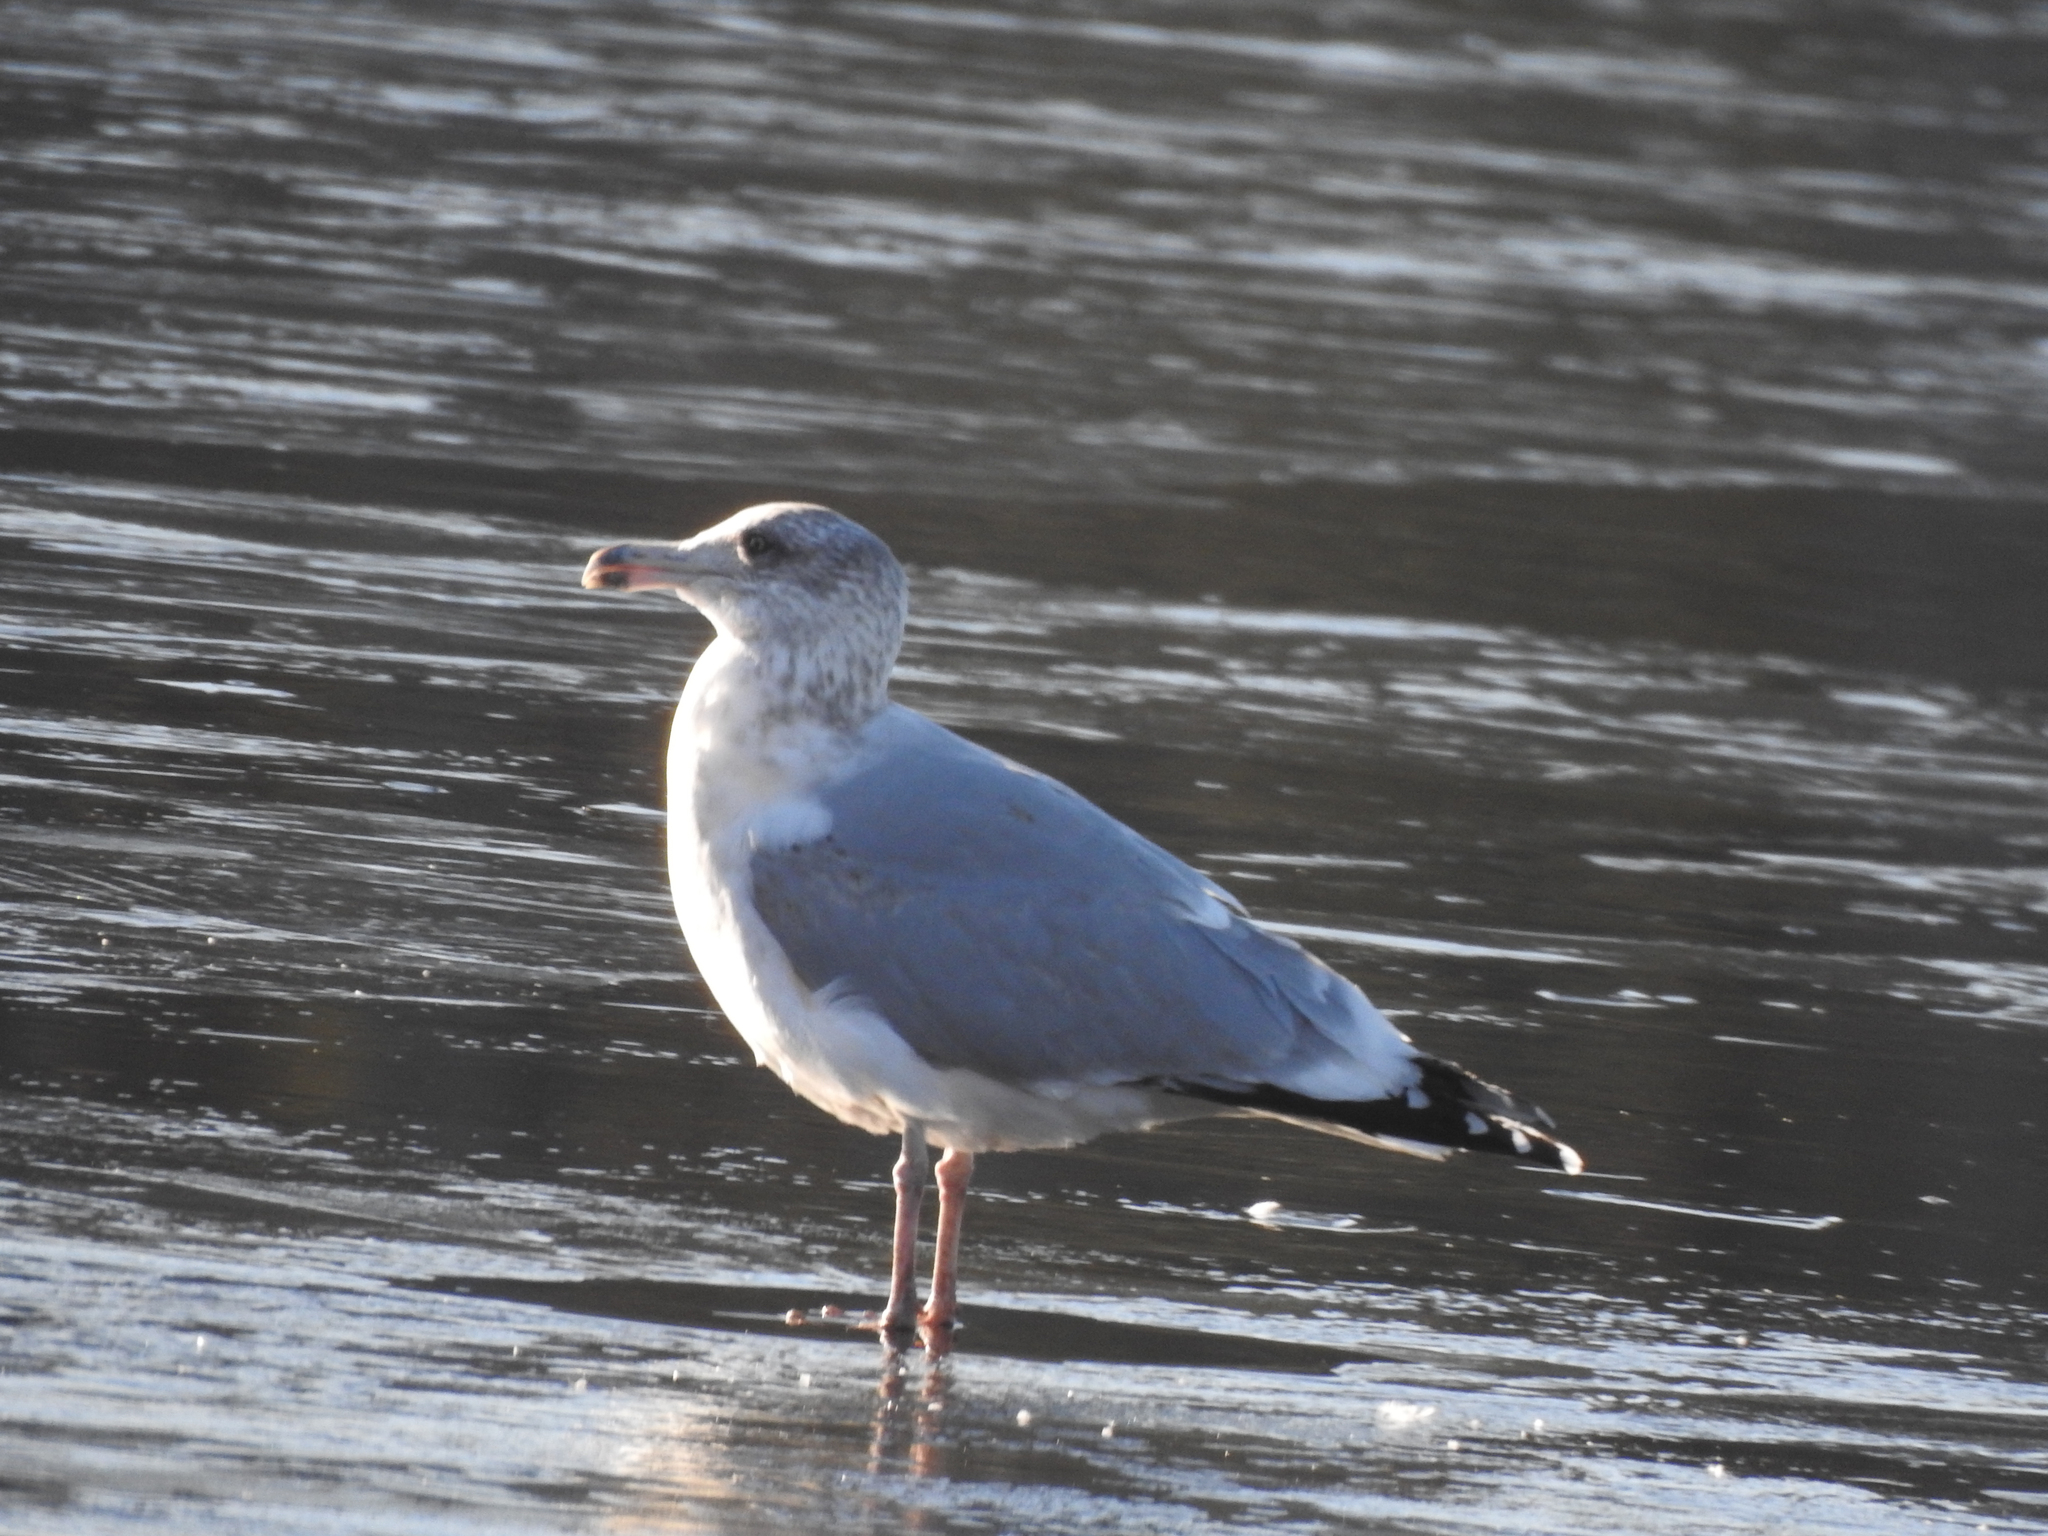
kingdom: Animalia
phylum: Chordata
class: Aves
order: Charadriiformes
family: Laridae
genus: Larus
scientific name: Larus argentatus
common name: Herring gull
